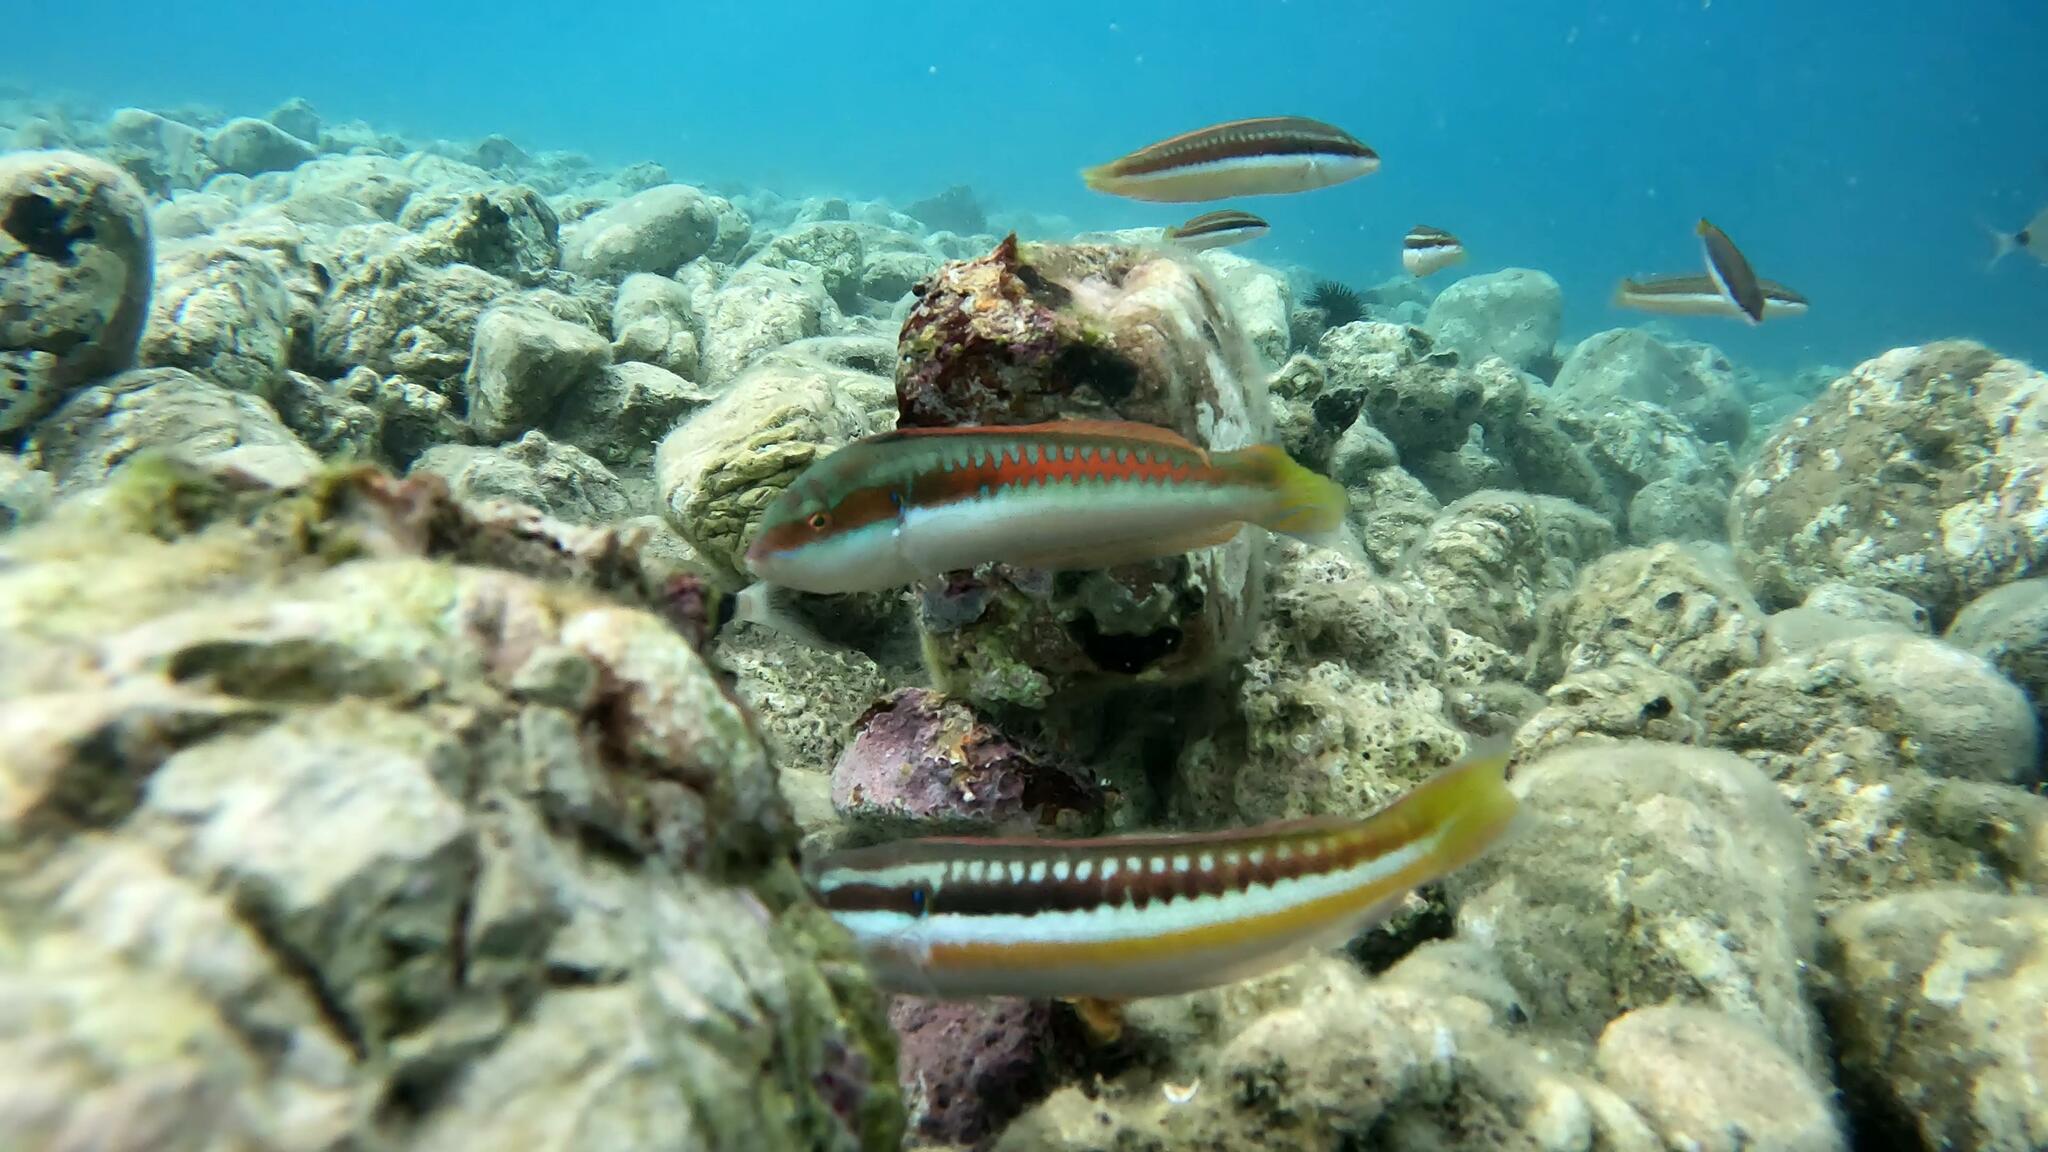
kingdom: Animalia
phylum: Chordata
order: Perciformes
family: Labridae
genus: Coris
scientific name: Coris julis
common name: Rainbow wrasse
